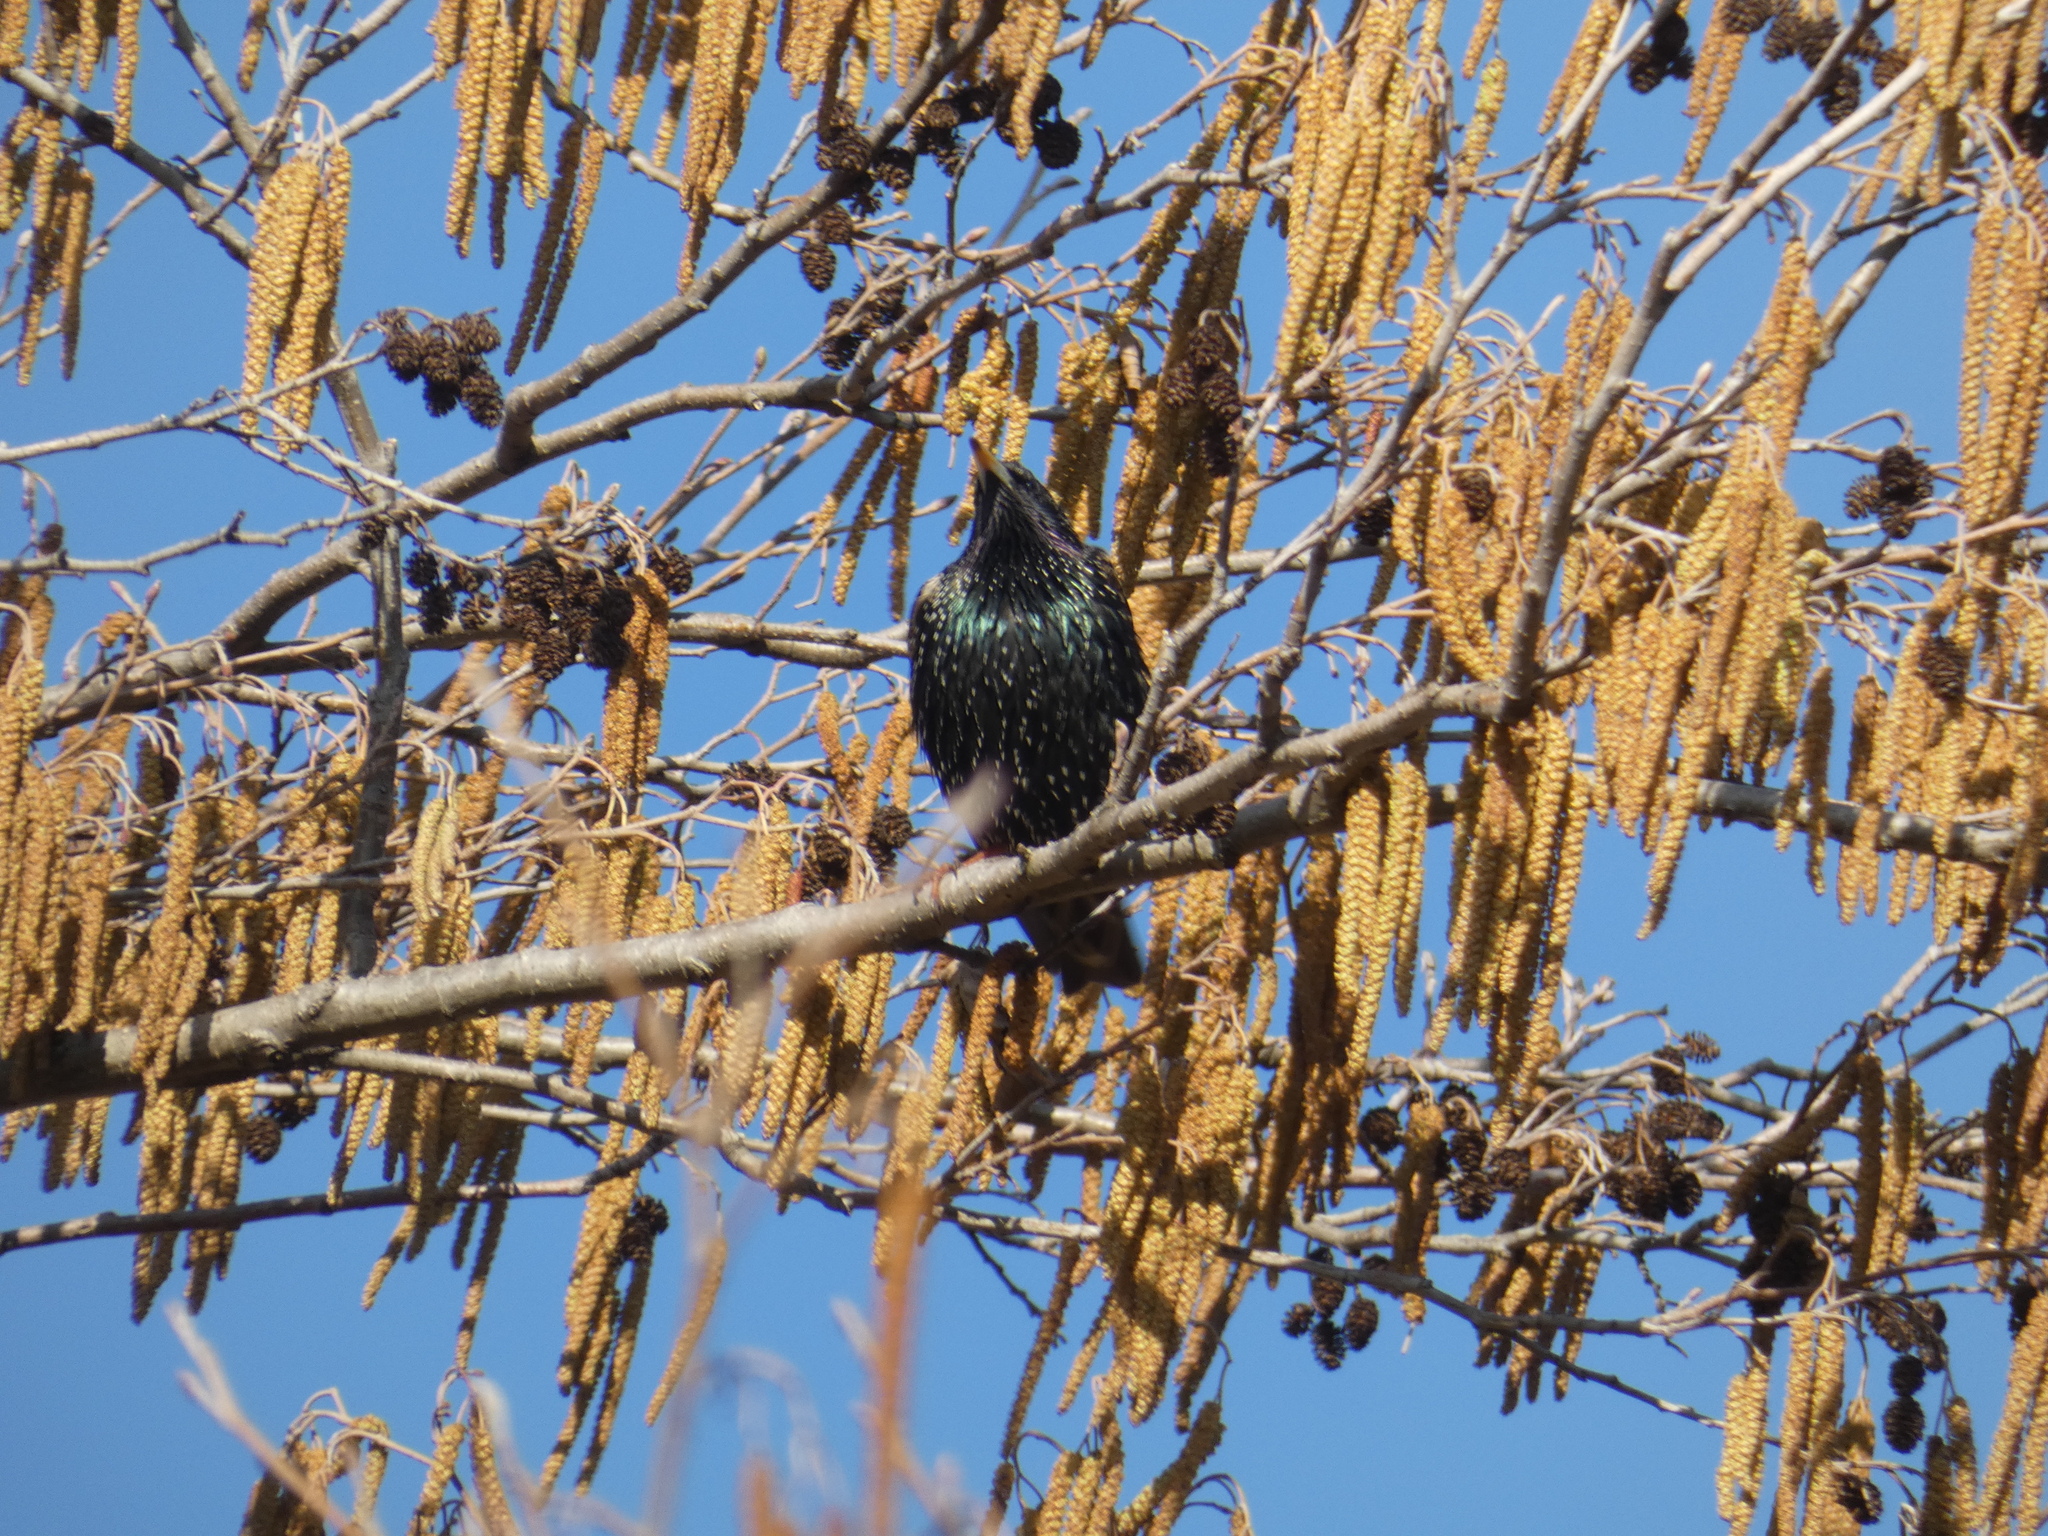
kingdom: Animalia
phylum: Chordata
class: Aves
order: Passeriformes
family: Sturnidae
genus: Sturnus
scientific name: Sturnus vulgaris
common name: Common starling
